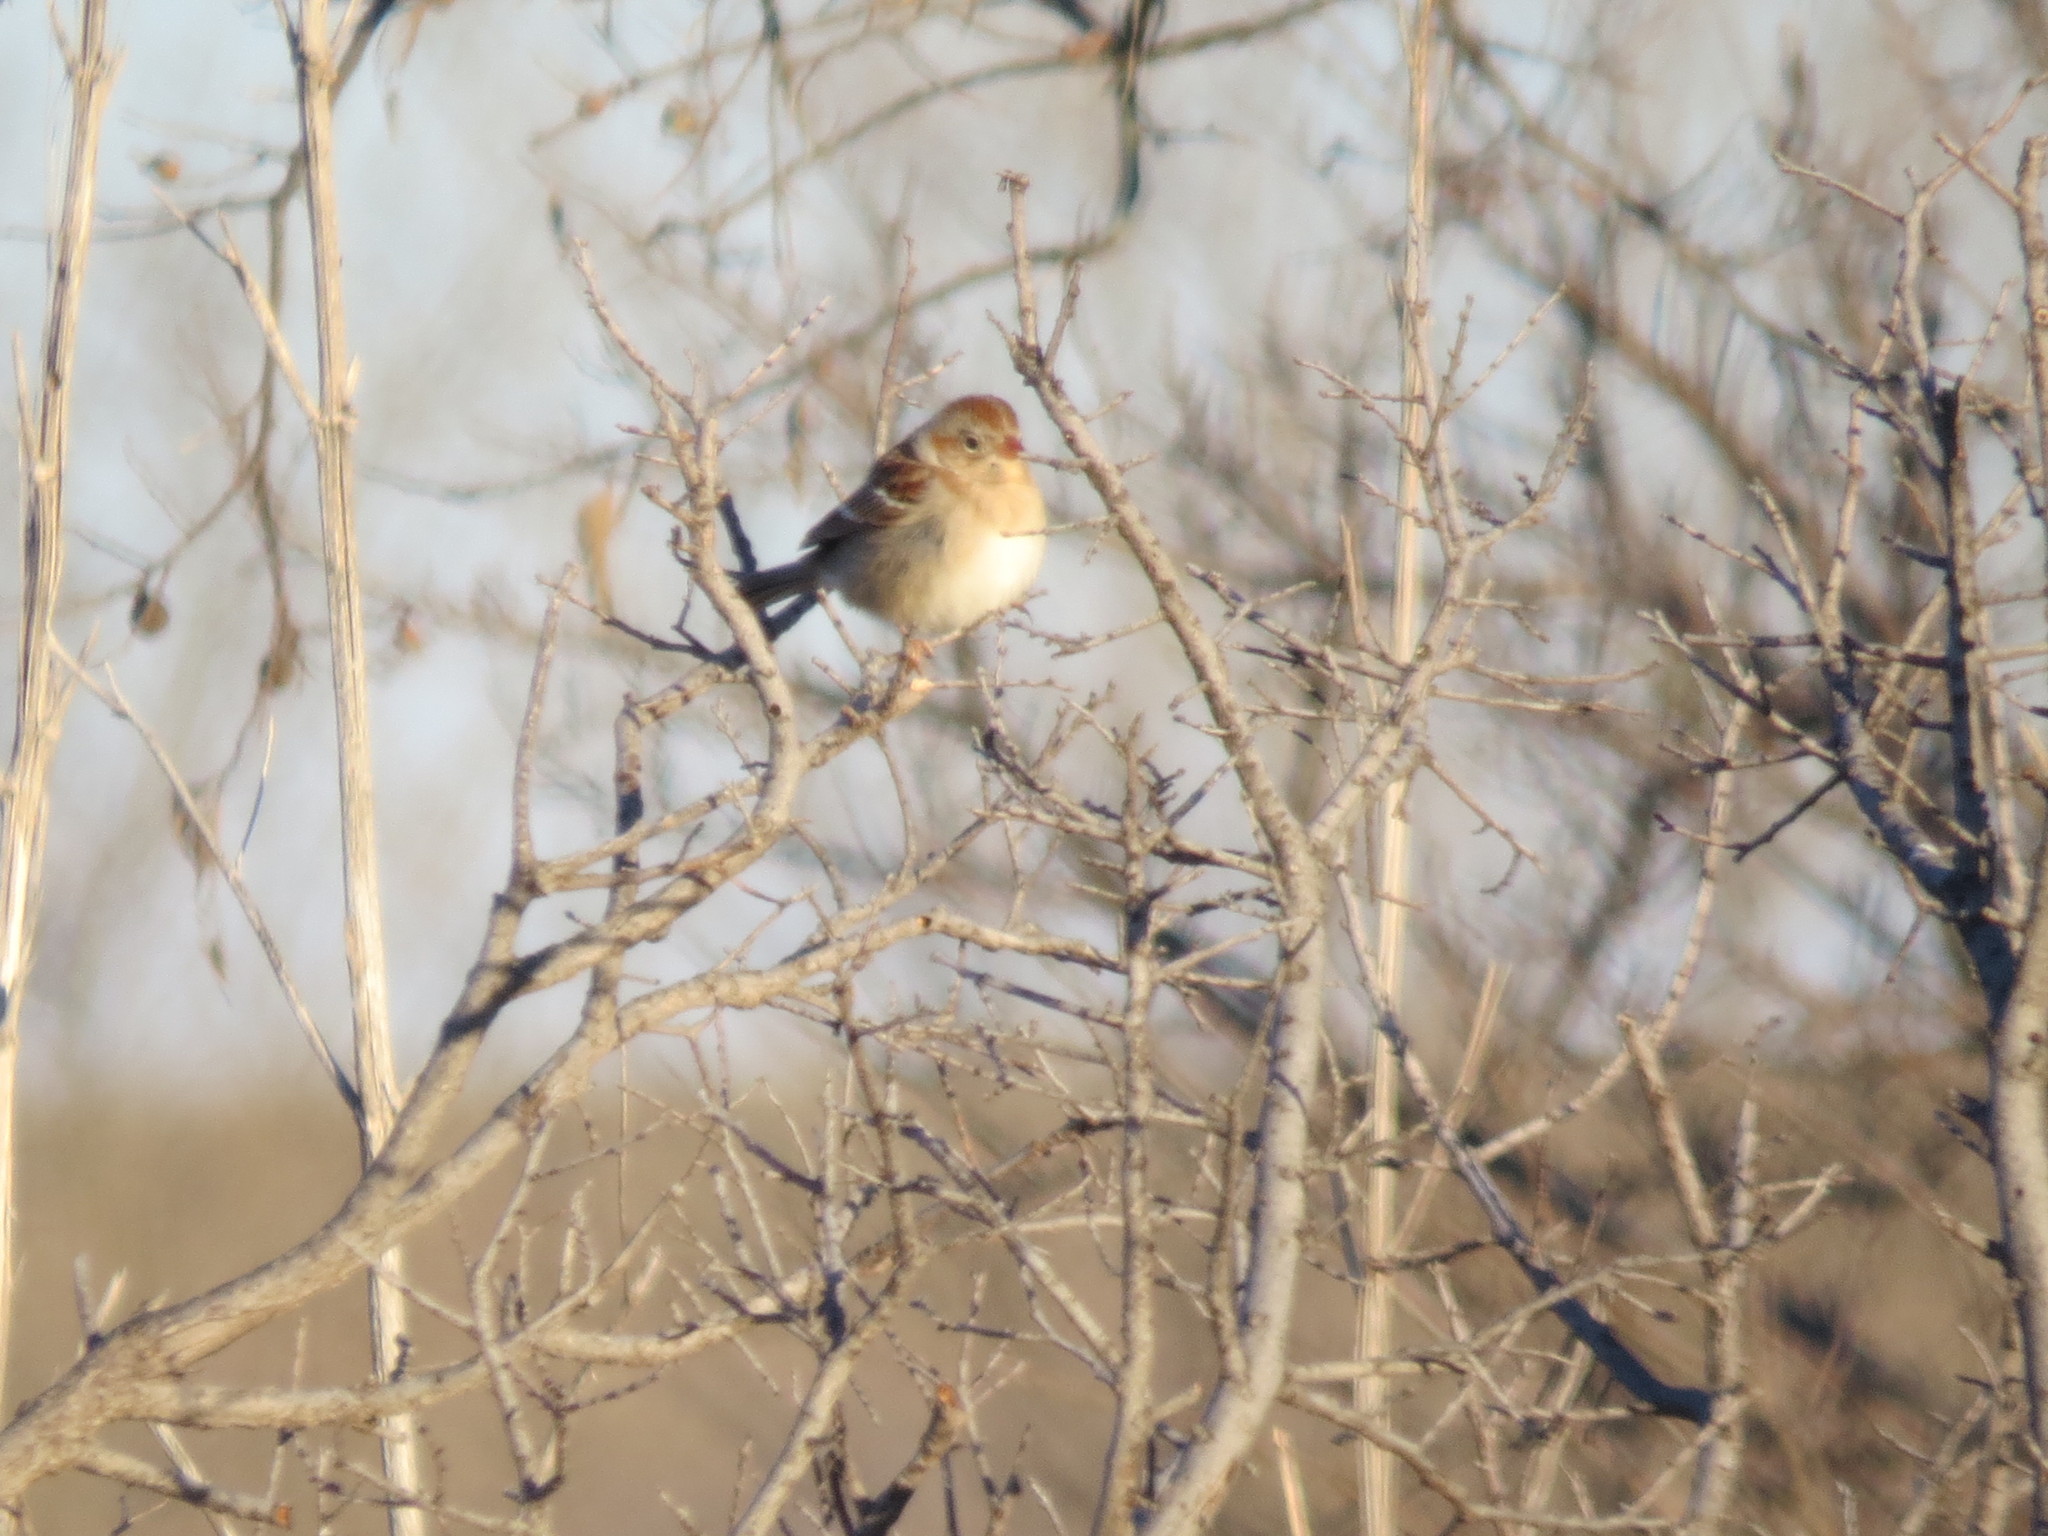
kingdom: Animalia
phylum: Chordata
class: Aves
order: Passeriformes
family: Passerellidae
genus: Spizella
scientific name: Spizella pusilla
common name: Field sparrow
